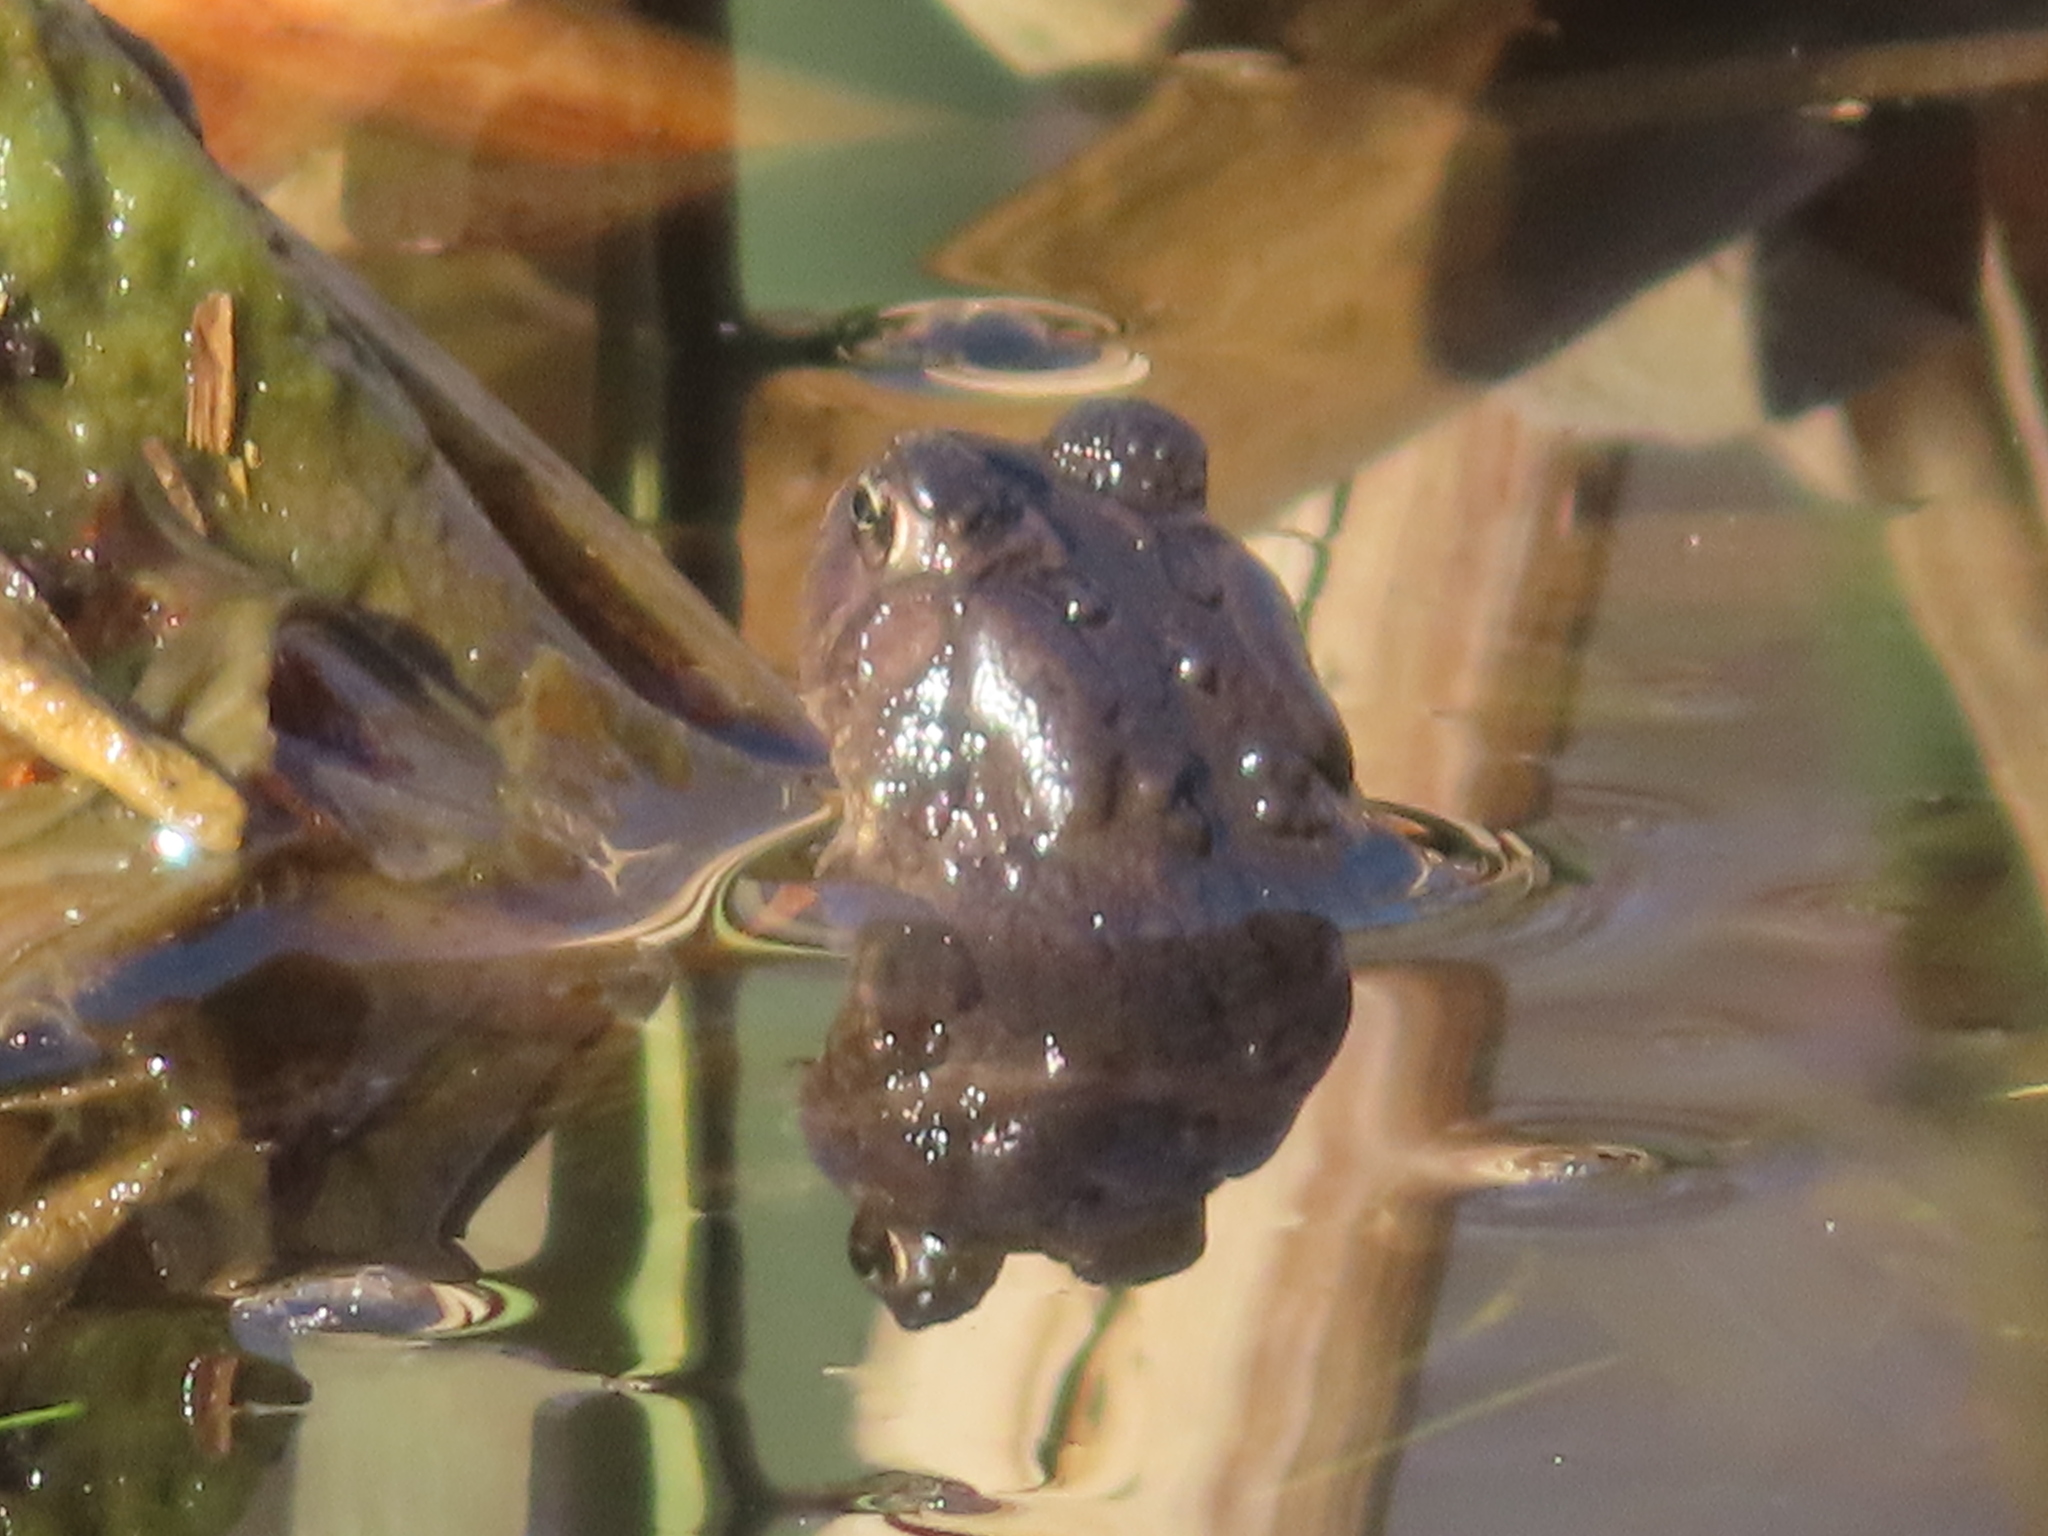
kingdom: Animalia
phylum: Chordata
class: Amphibia
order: Anura
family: Bufonidae
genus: Anaxyrus
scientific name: Anaxyrus americanus
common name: American toad
